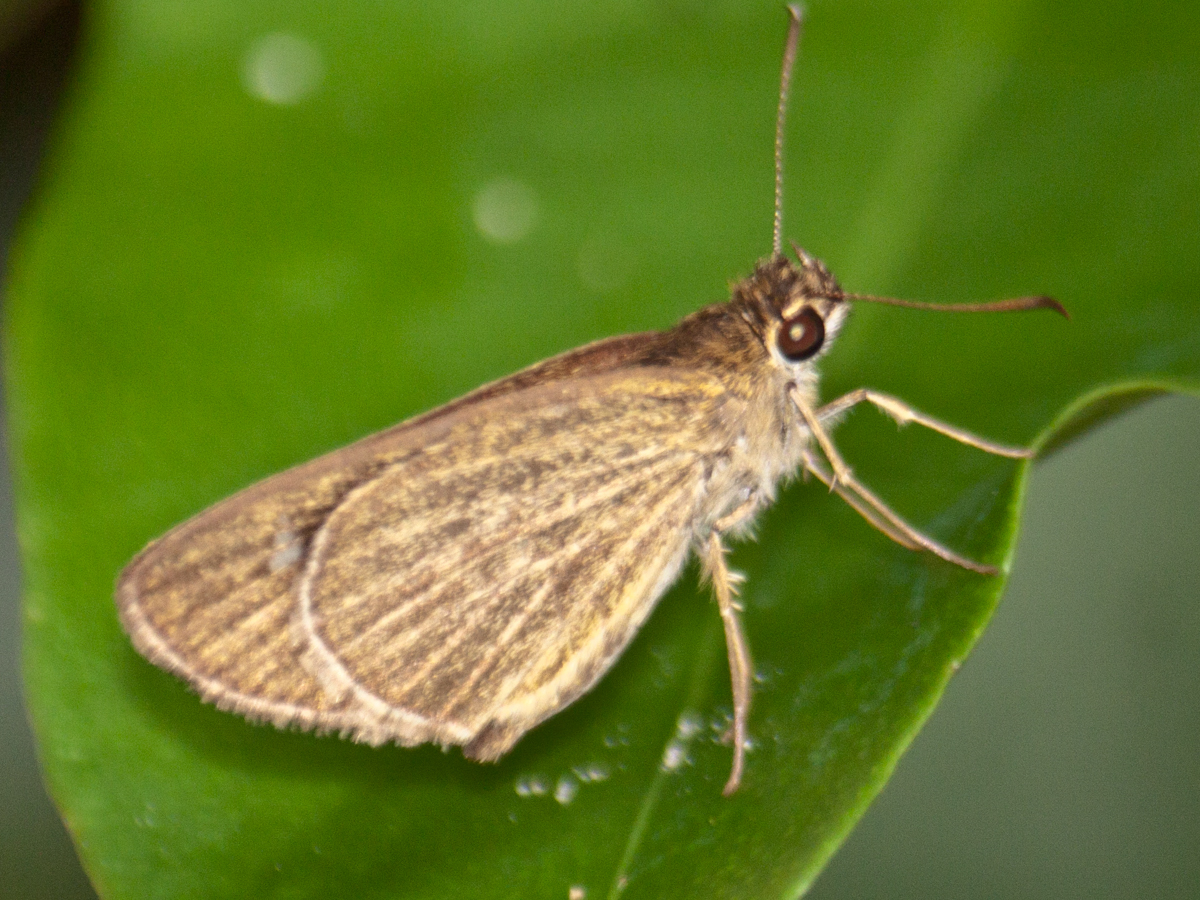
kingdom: Animalia
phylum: Arthropoda
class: Insecta
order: Lepidoptera
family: Hesperiidae
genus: Suada
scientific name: Suada swerga
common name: Grass bob
